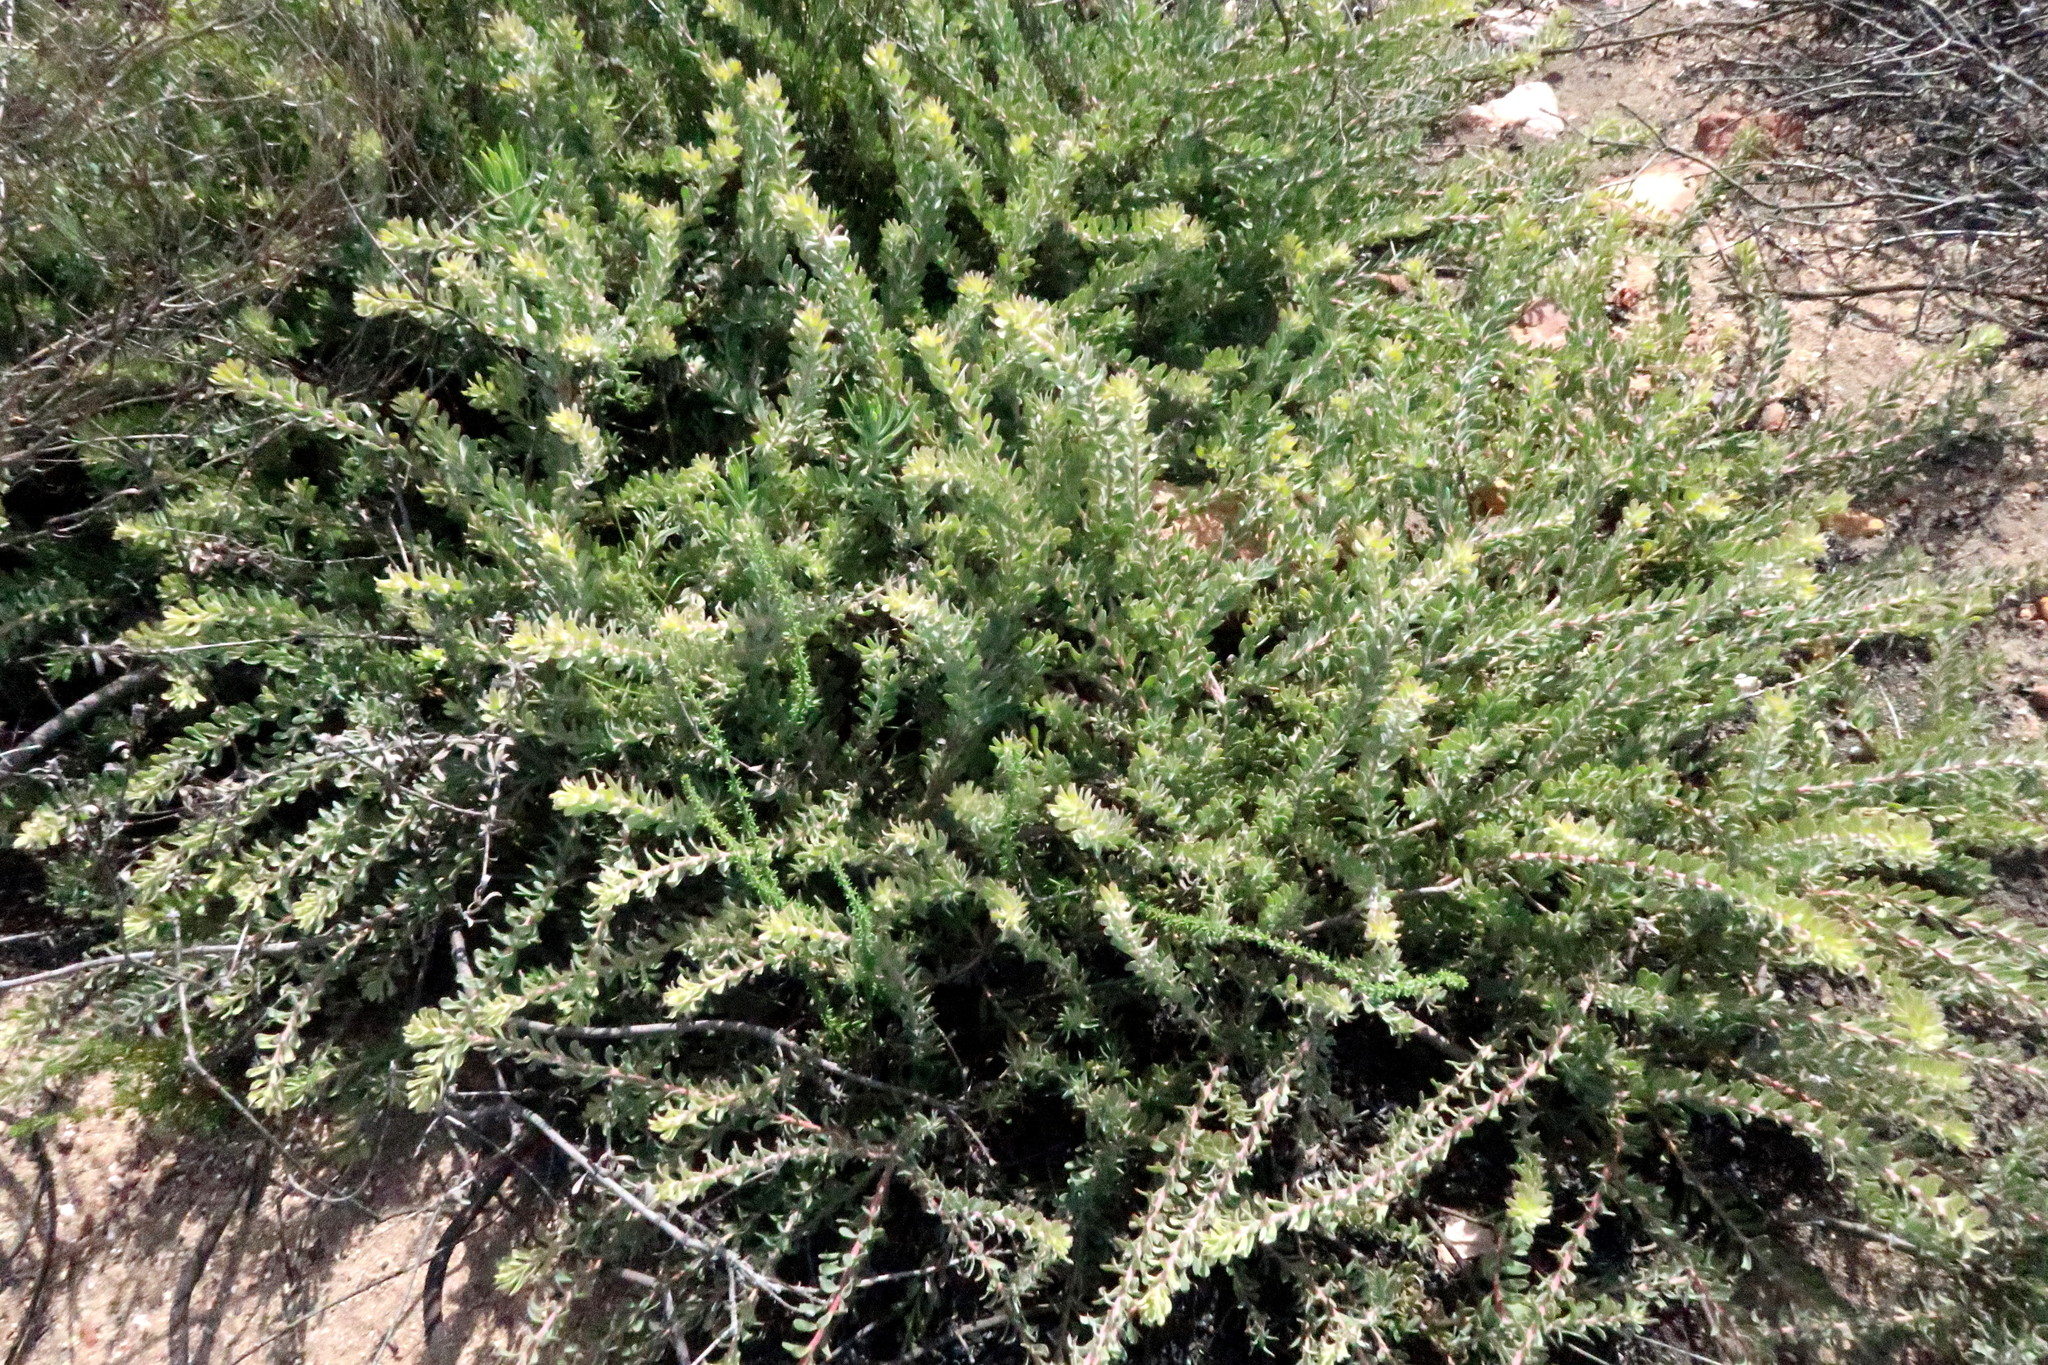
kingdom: Plantae
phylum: Tracheophyta
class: Magnoliopsida
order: Proteales
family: Proteaceae
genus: Leucospermum
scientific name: Leucospermum royenifolium
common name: Eastern pincushion
